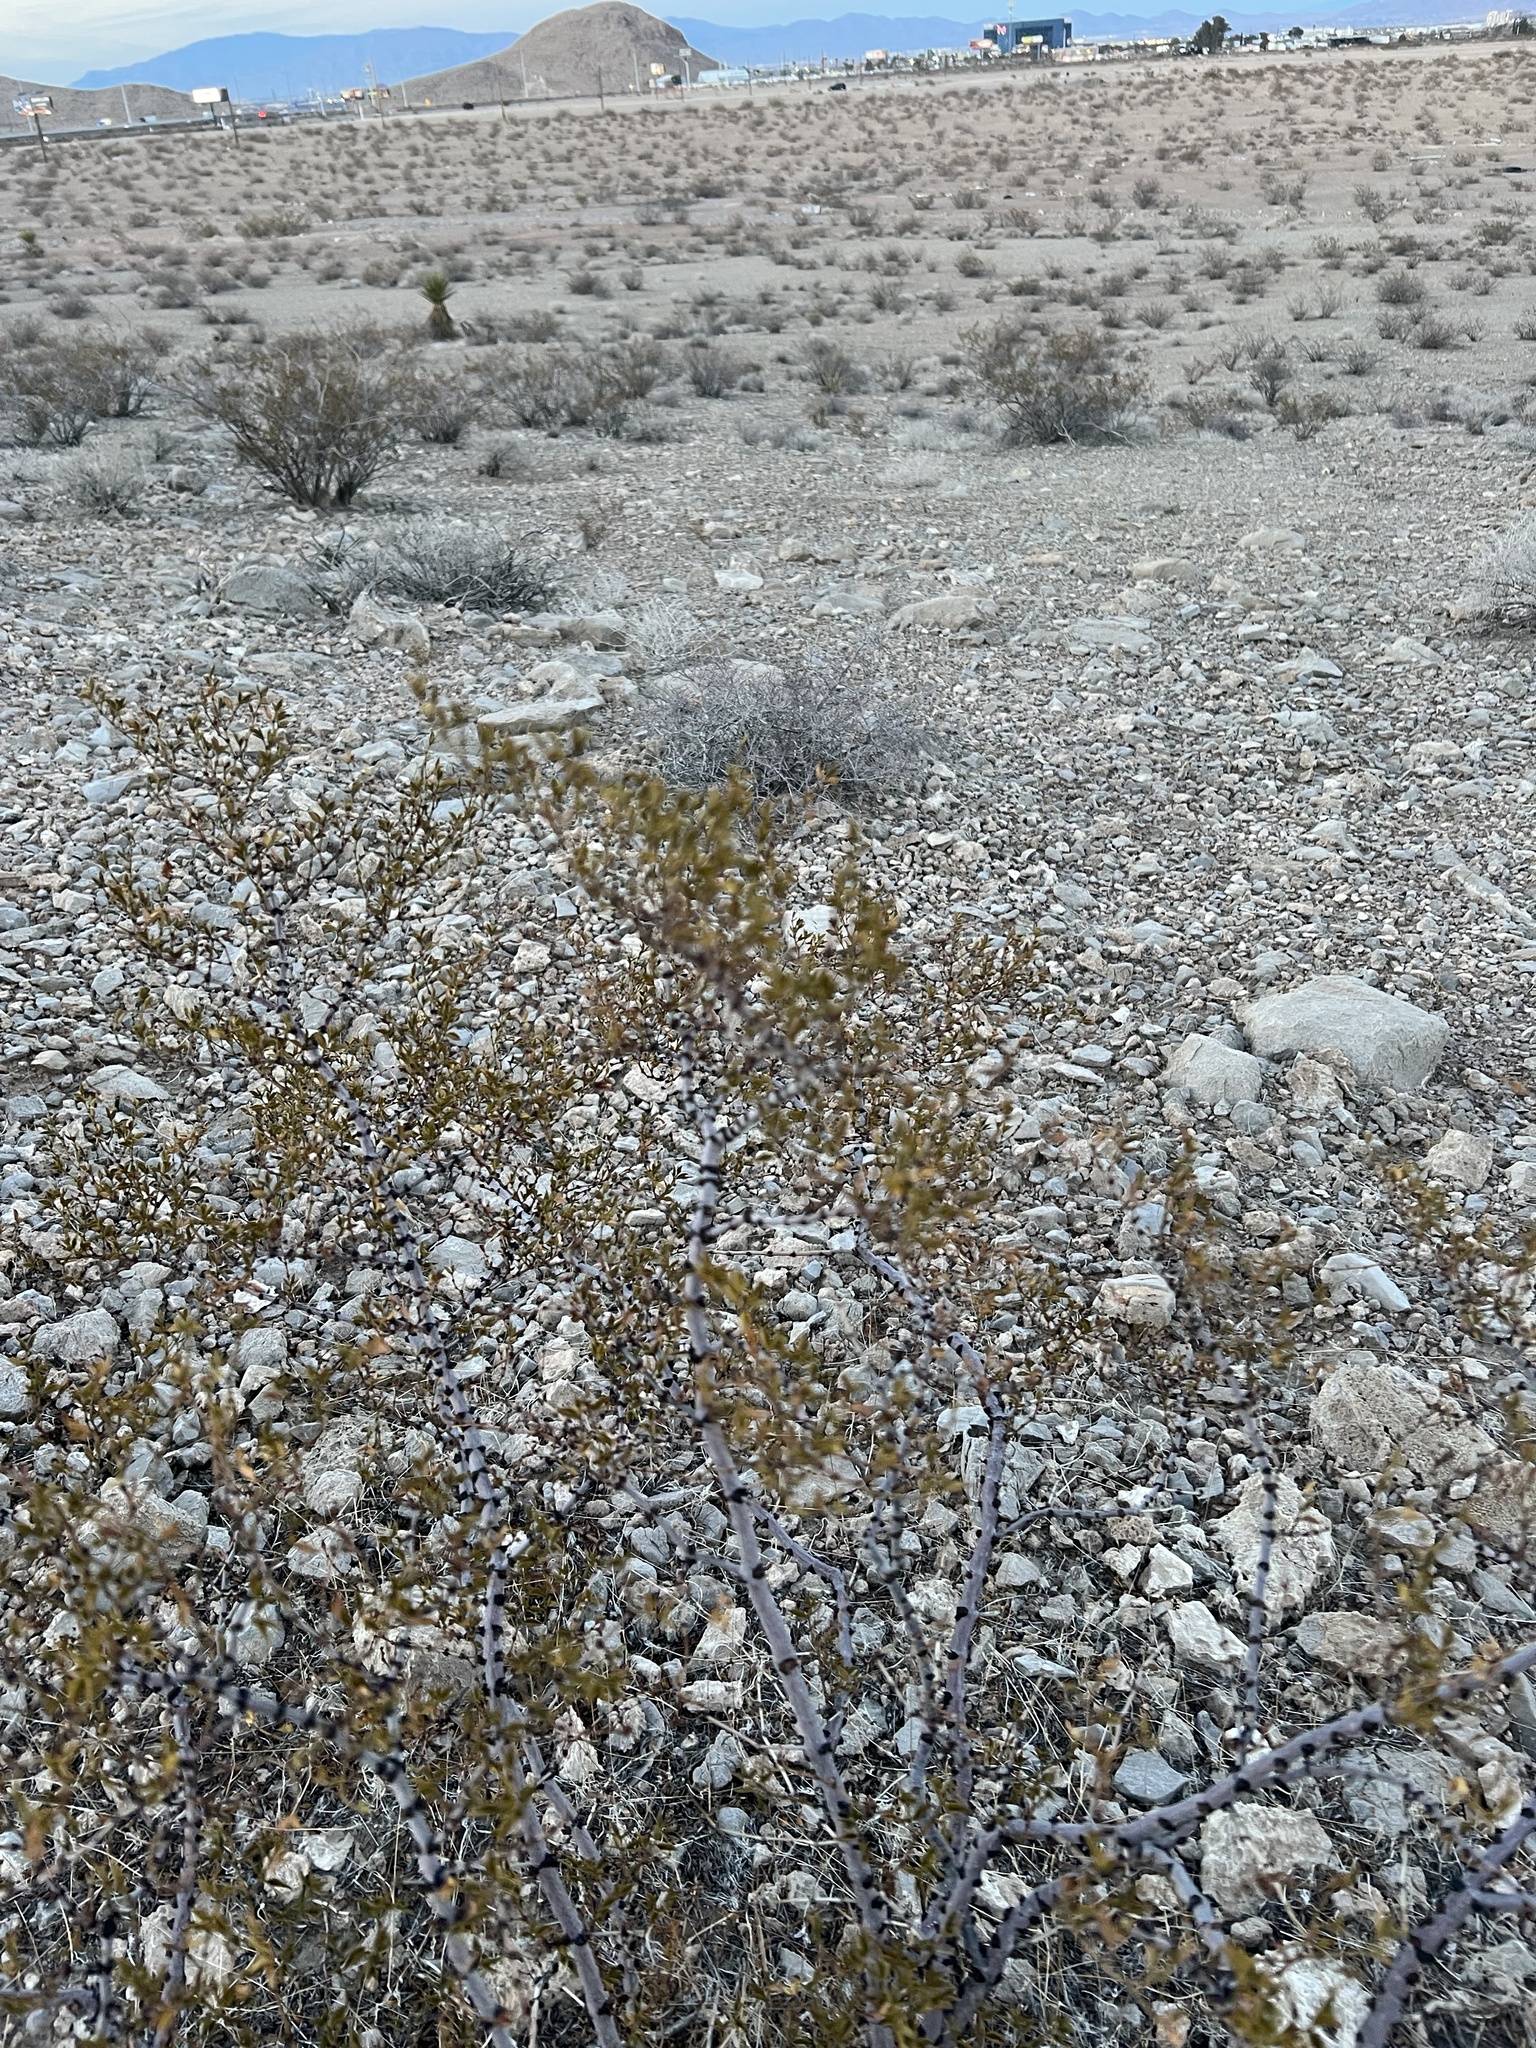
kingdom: Plantae
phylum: Tracheophyta
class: Magnoliopsida
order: Zygophyllales
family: Zygophyllaceae
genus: Larrea
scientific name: Larrea tridentata
